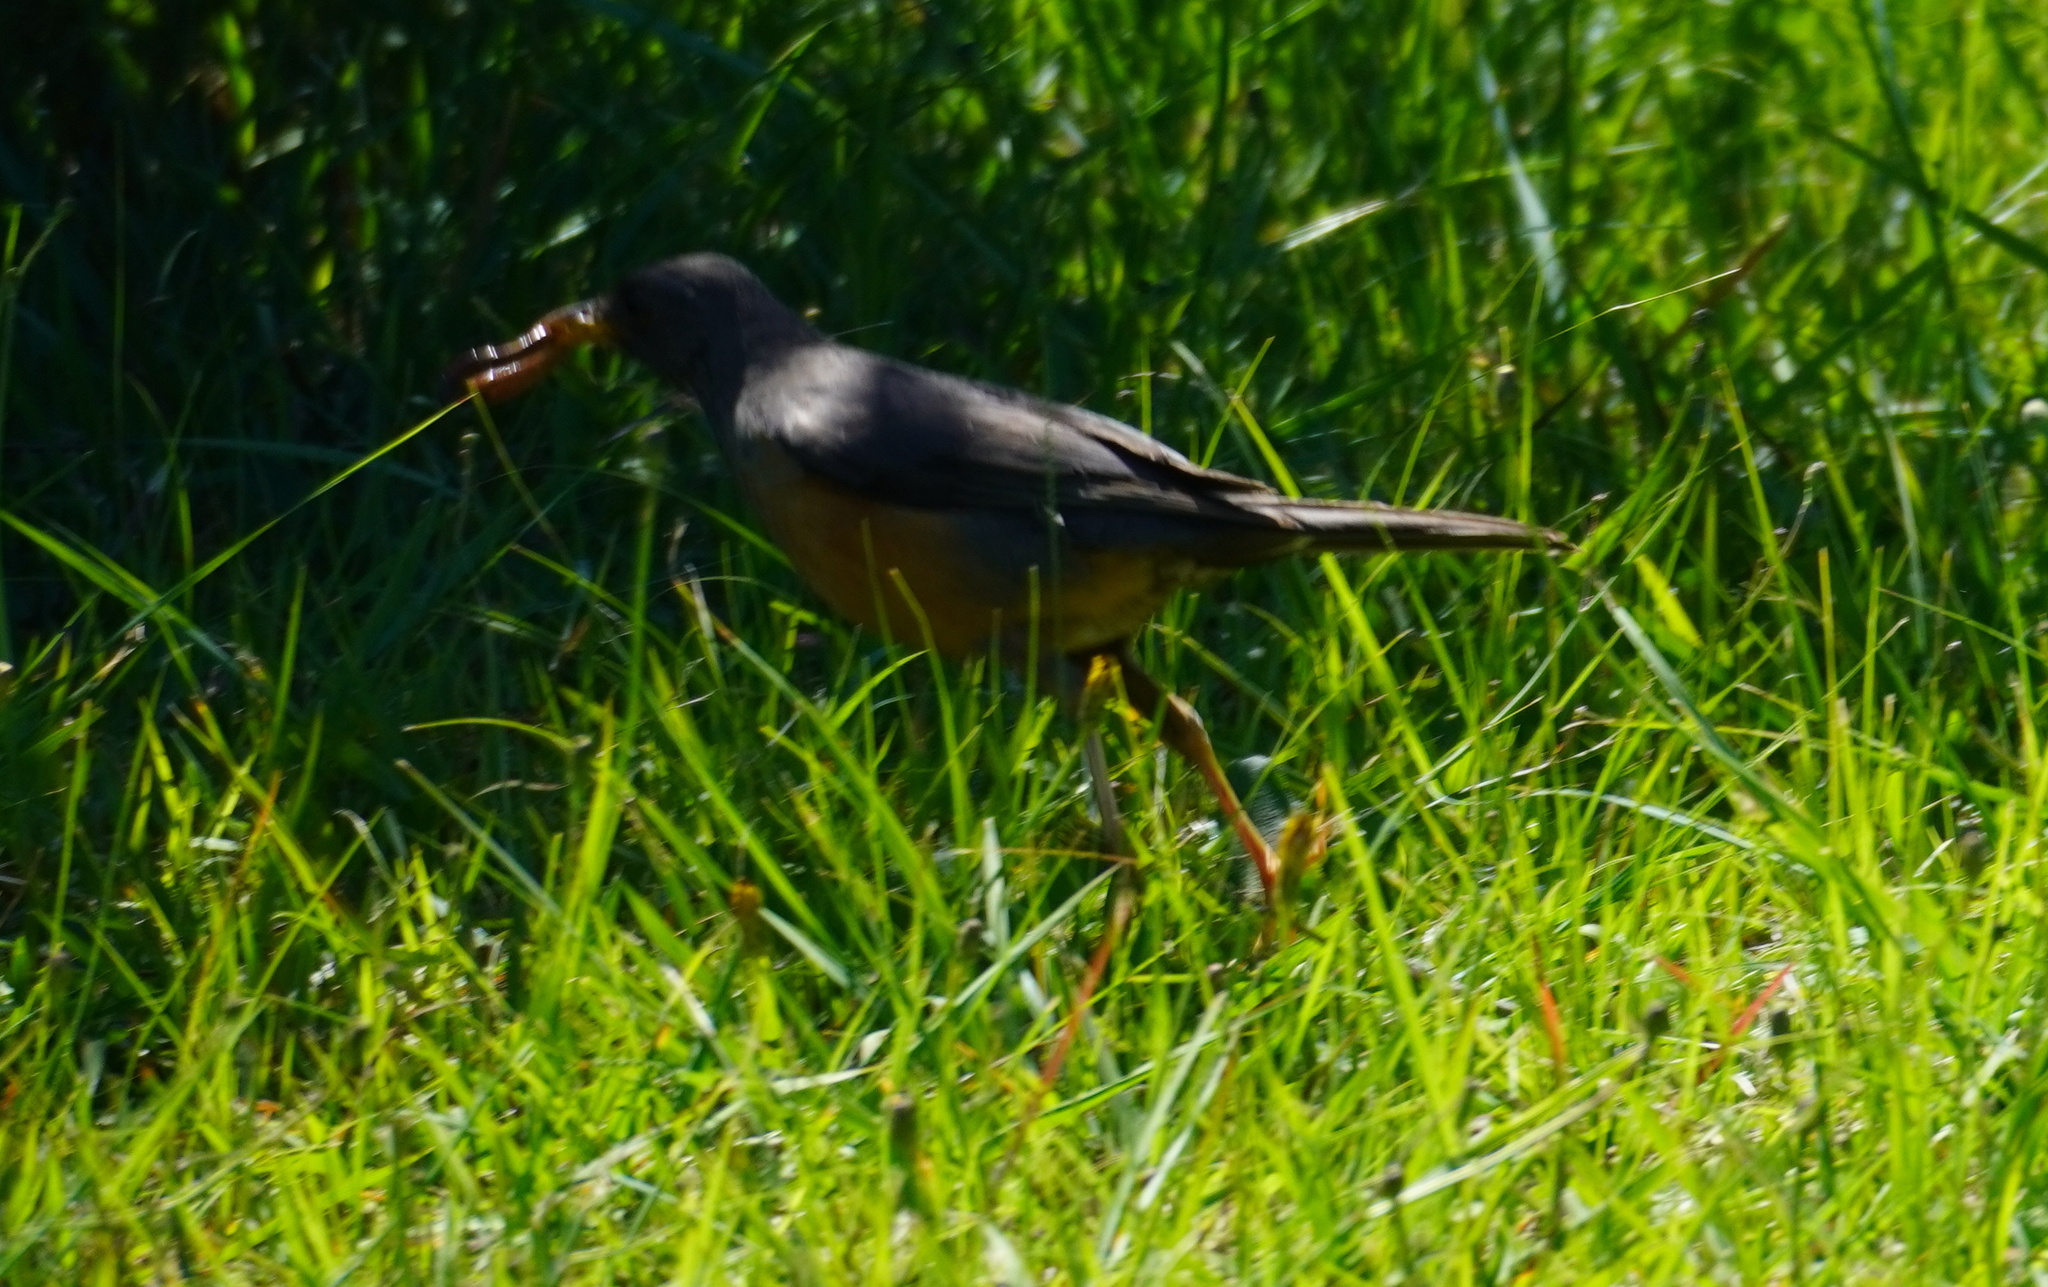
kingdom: Animalia
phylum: Chordata
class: Aves
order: Passeriformes
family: Turdidae
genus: Turdus
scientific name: Turdus olivaceus
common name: Olive thrush
